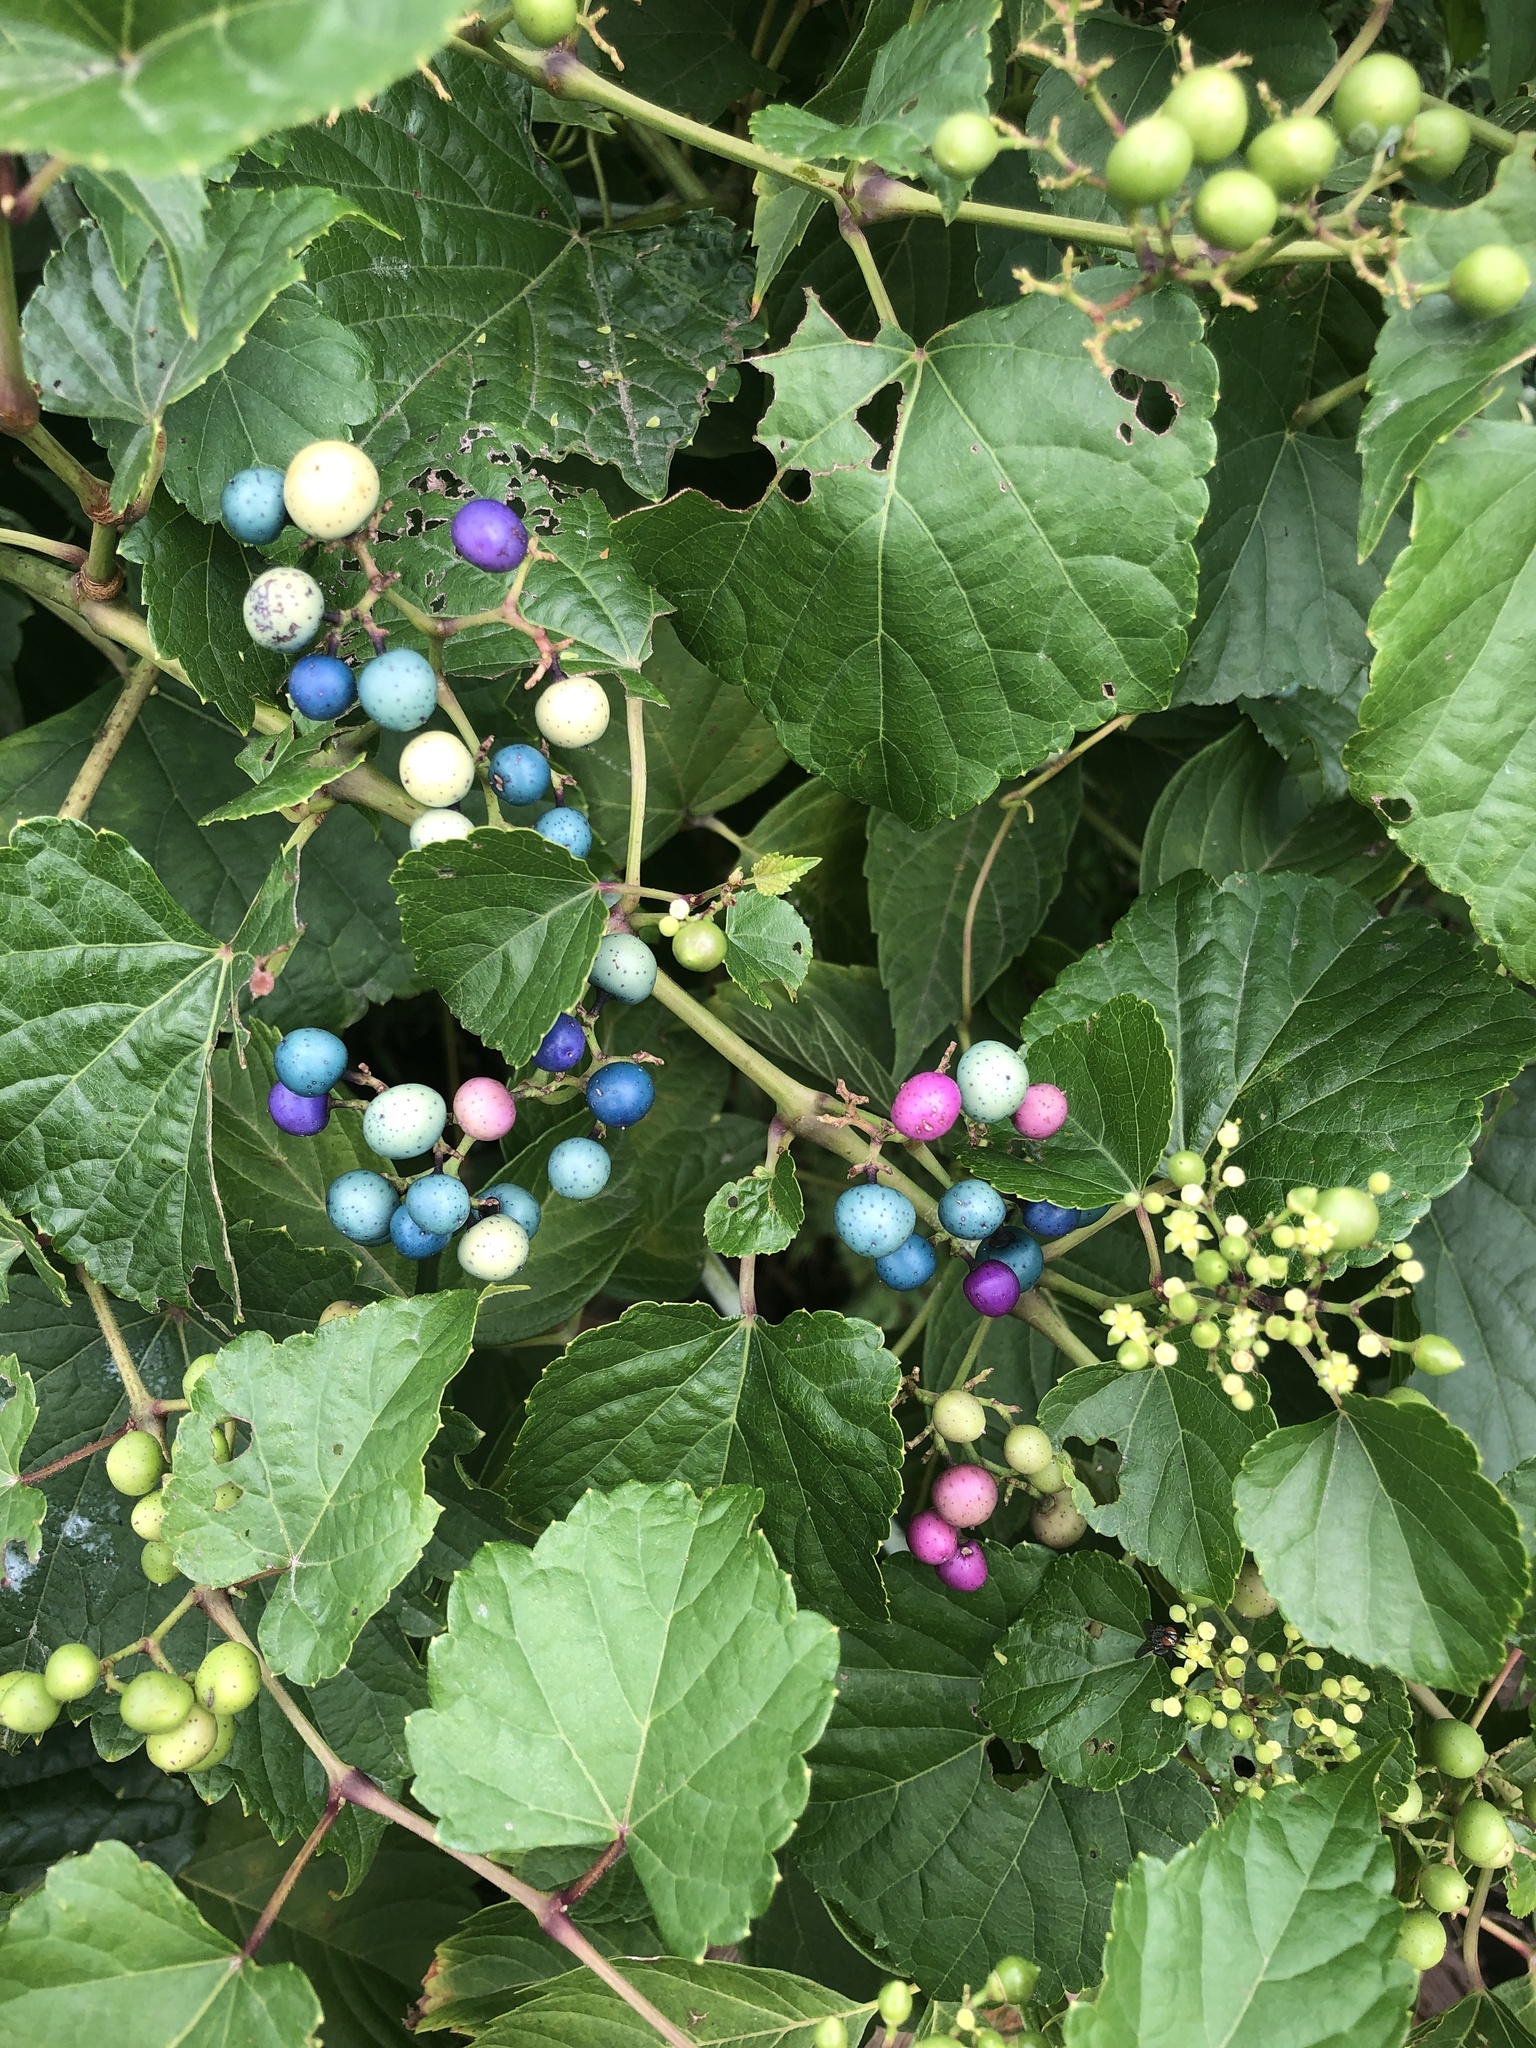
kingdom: Plantae
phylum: Tracheophyta
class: Magnoliopsida
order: Vitales
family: Vitaceae
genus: Ampelopsis
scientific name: Ampelopsis glandulosa
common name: Amur peppervine
